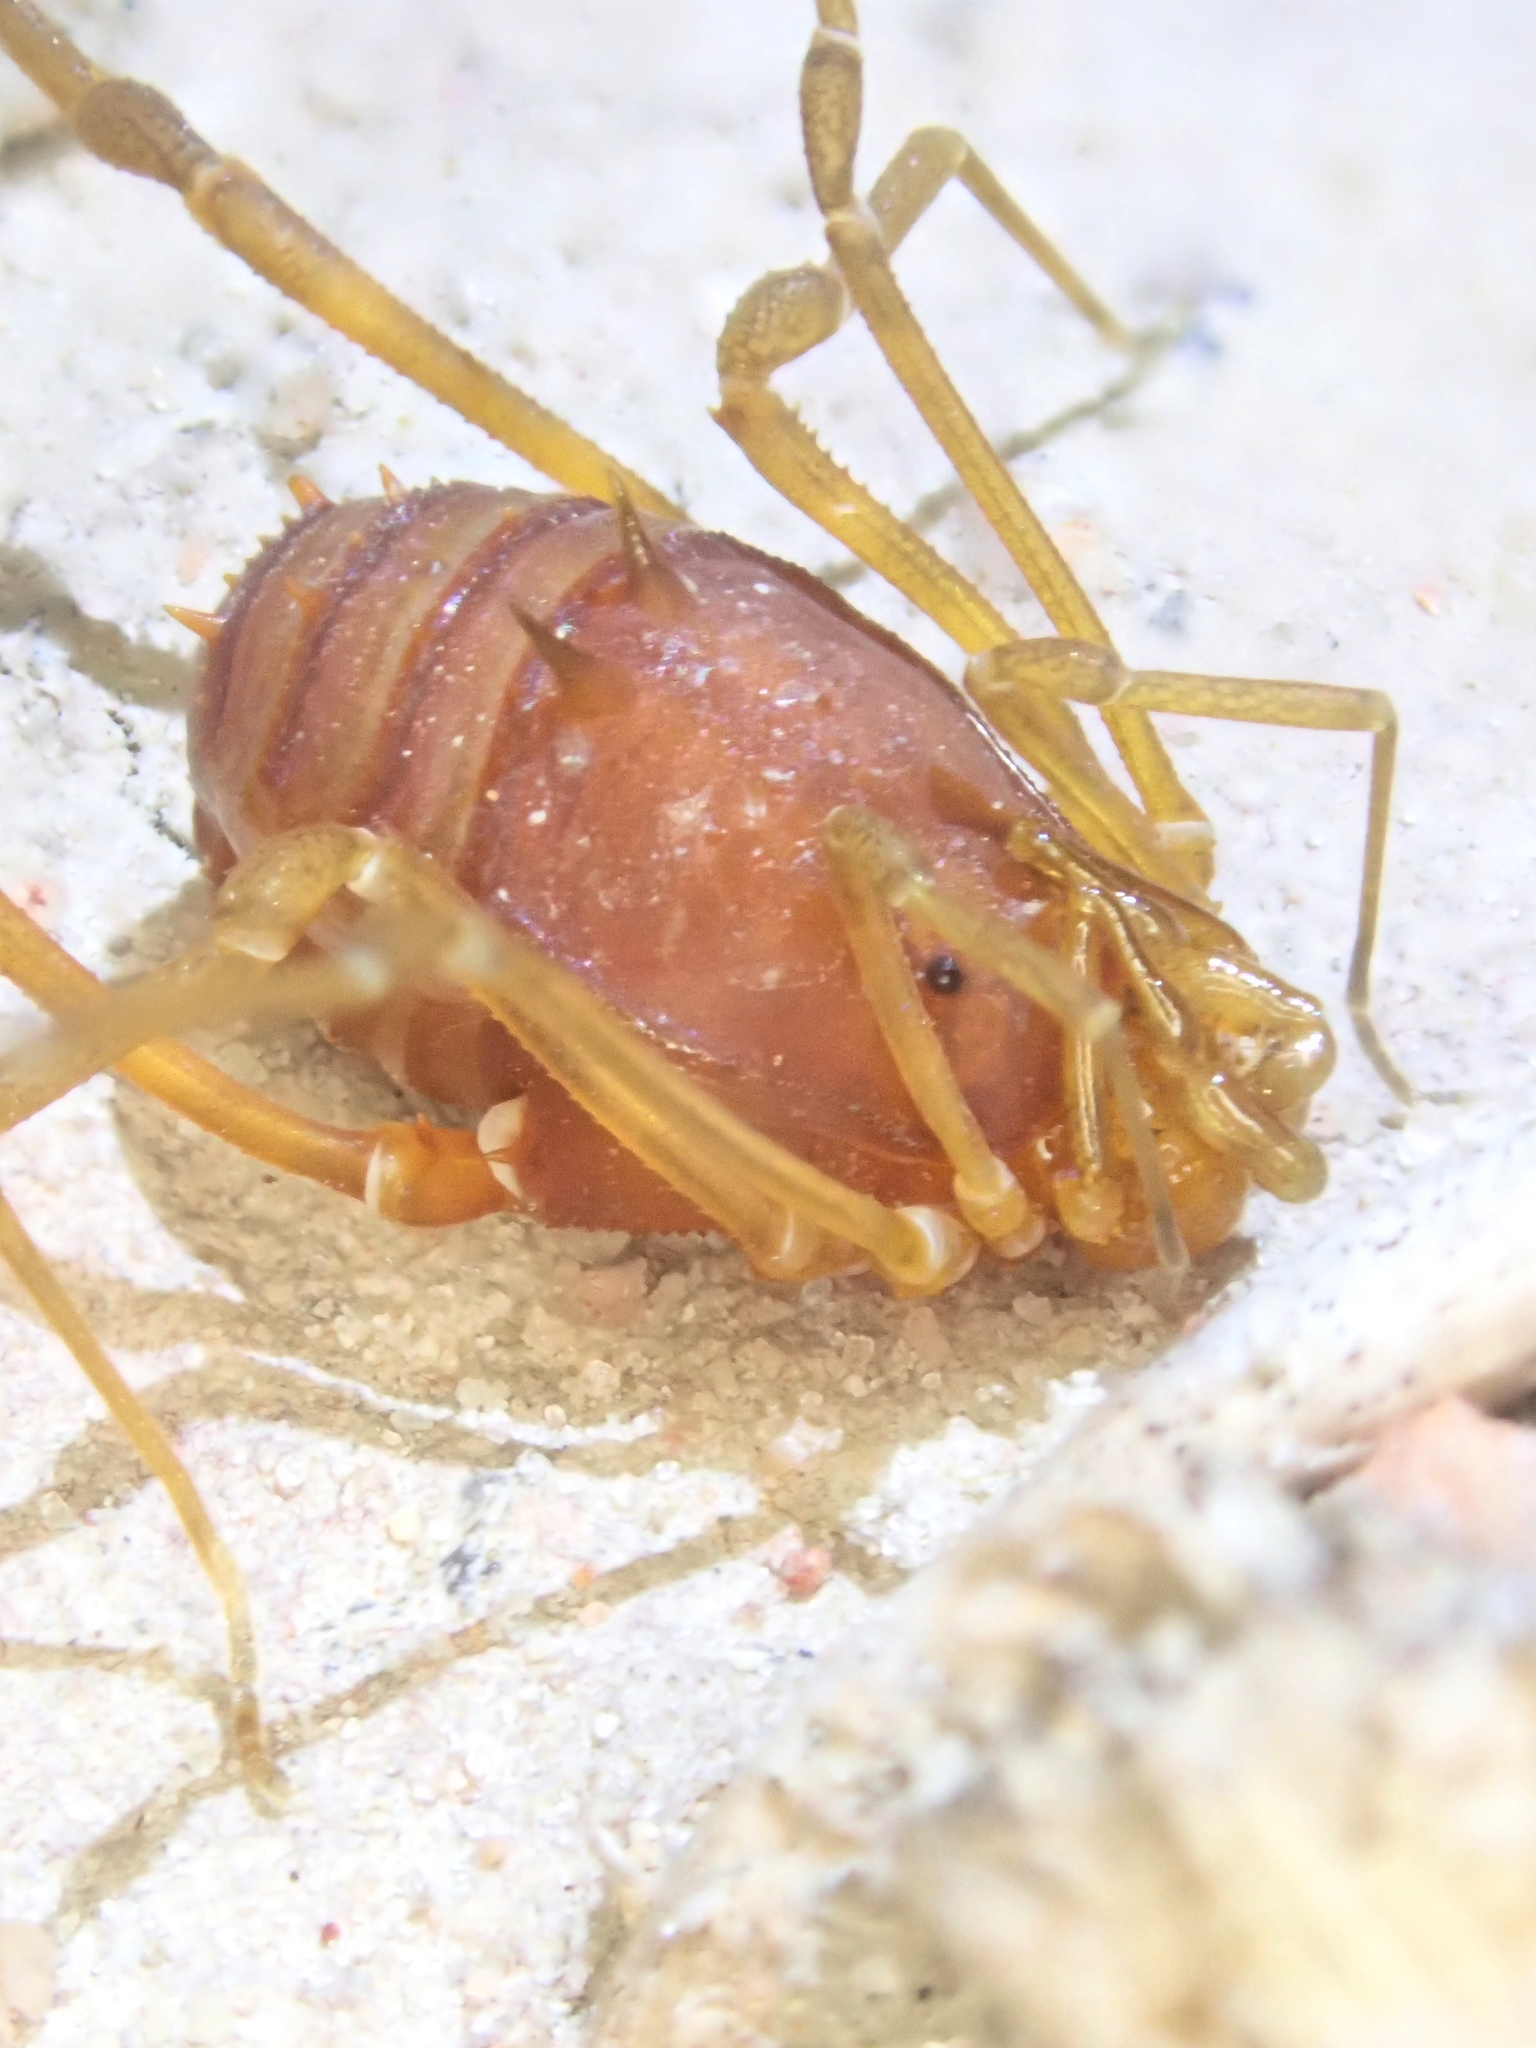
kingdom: Animalia
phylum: Arthropoda
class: Arachnida
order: Opiliones
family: Stygnidae
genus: Stygnus
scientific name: Stygnus polyacanthus
